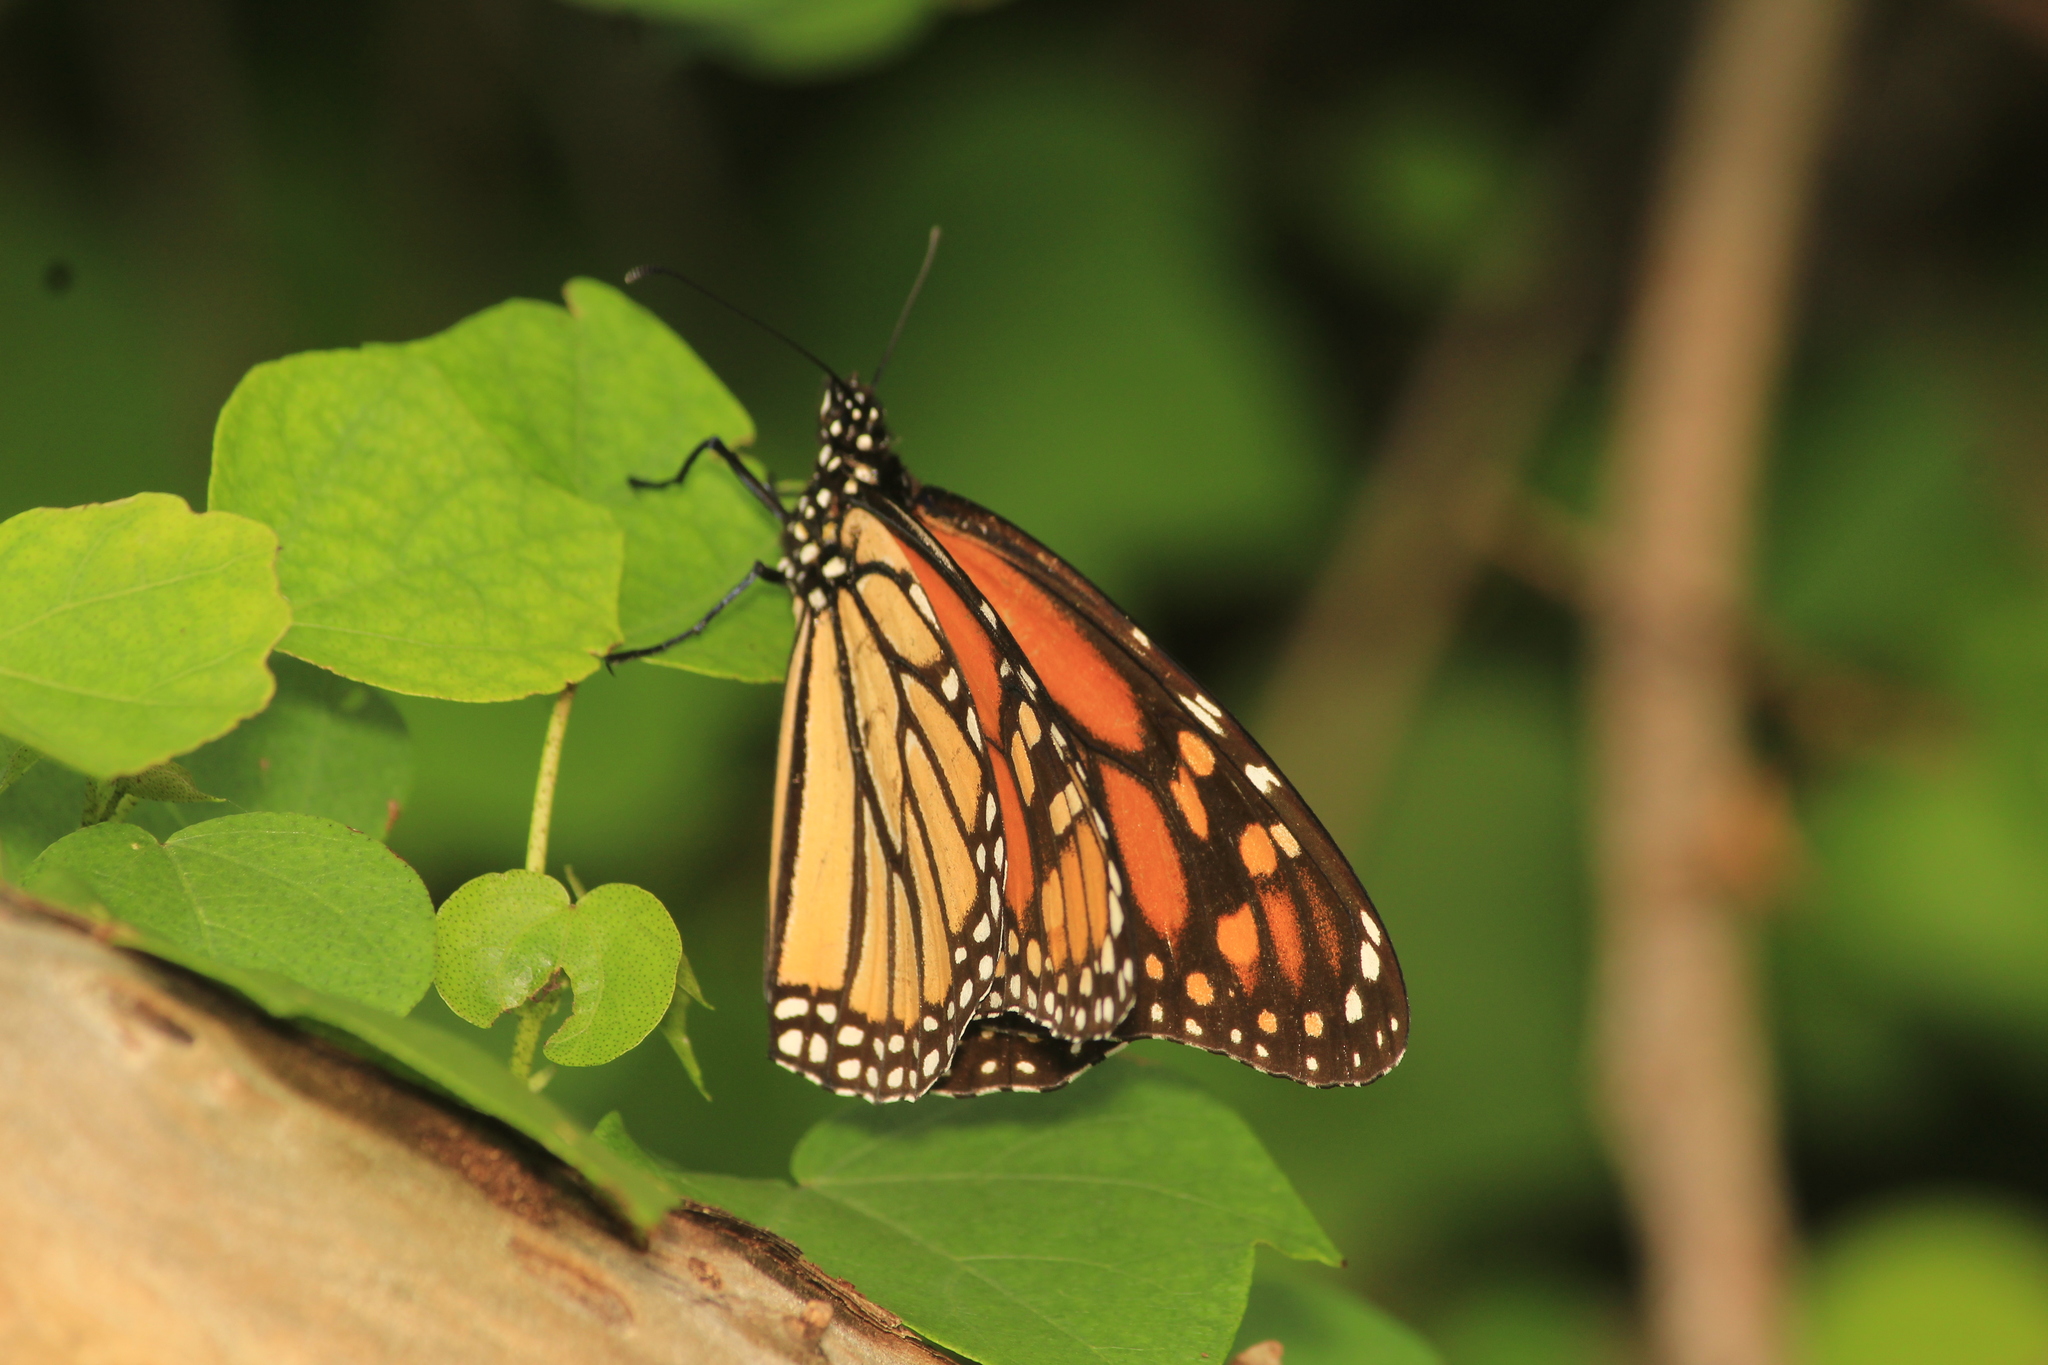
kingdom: Animalia
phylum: Arthropoda
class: Insecta
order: Lepidoptera
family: Nymphalidae
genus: Danaus
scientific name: Danaus plexippus
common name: Monarch
